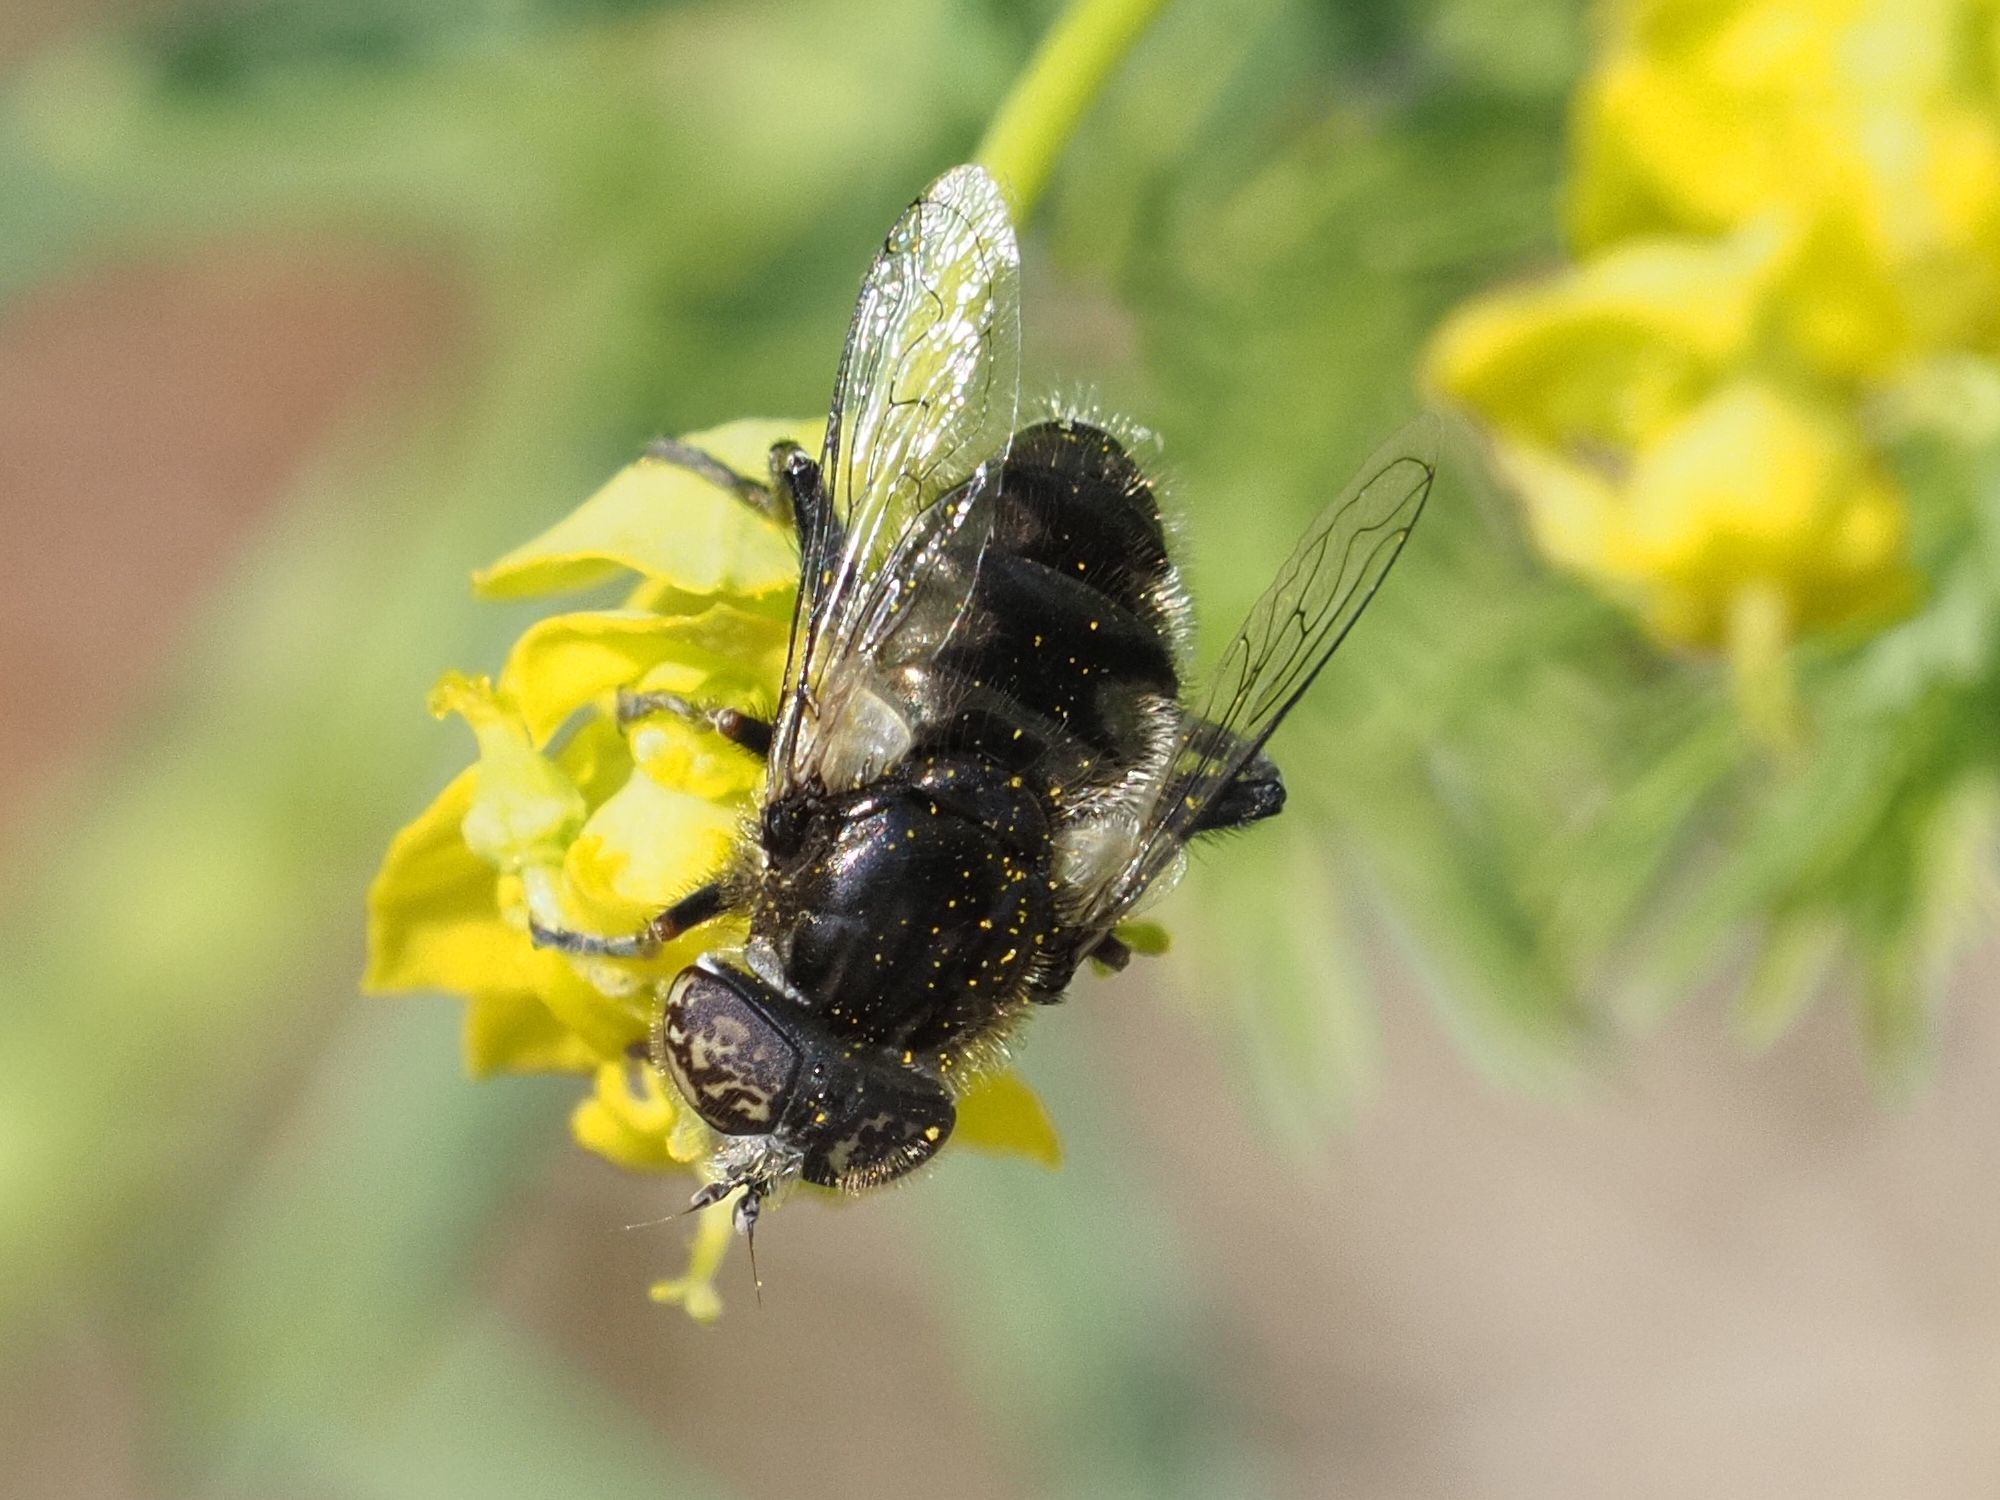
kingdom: Animalia
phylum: Arthropoda
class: Insecta
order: Diptera
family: Syrphidae
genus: Eristalinus
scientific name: Eristalinus sepulchralis
